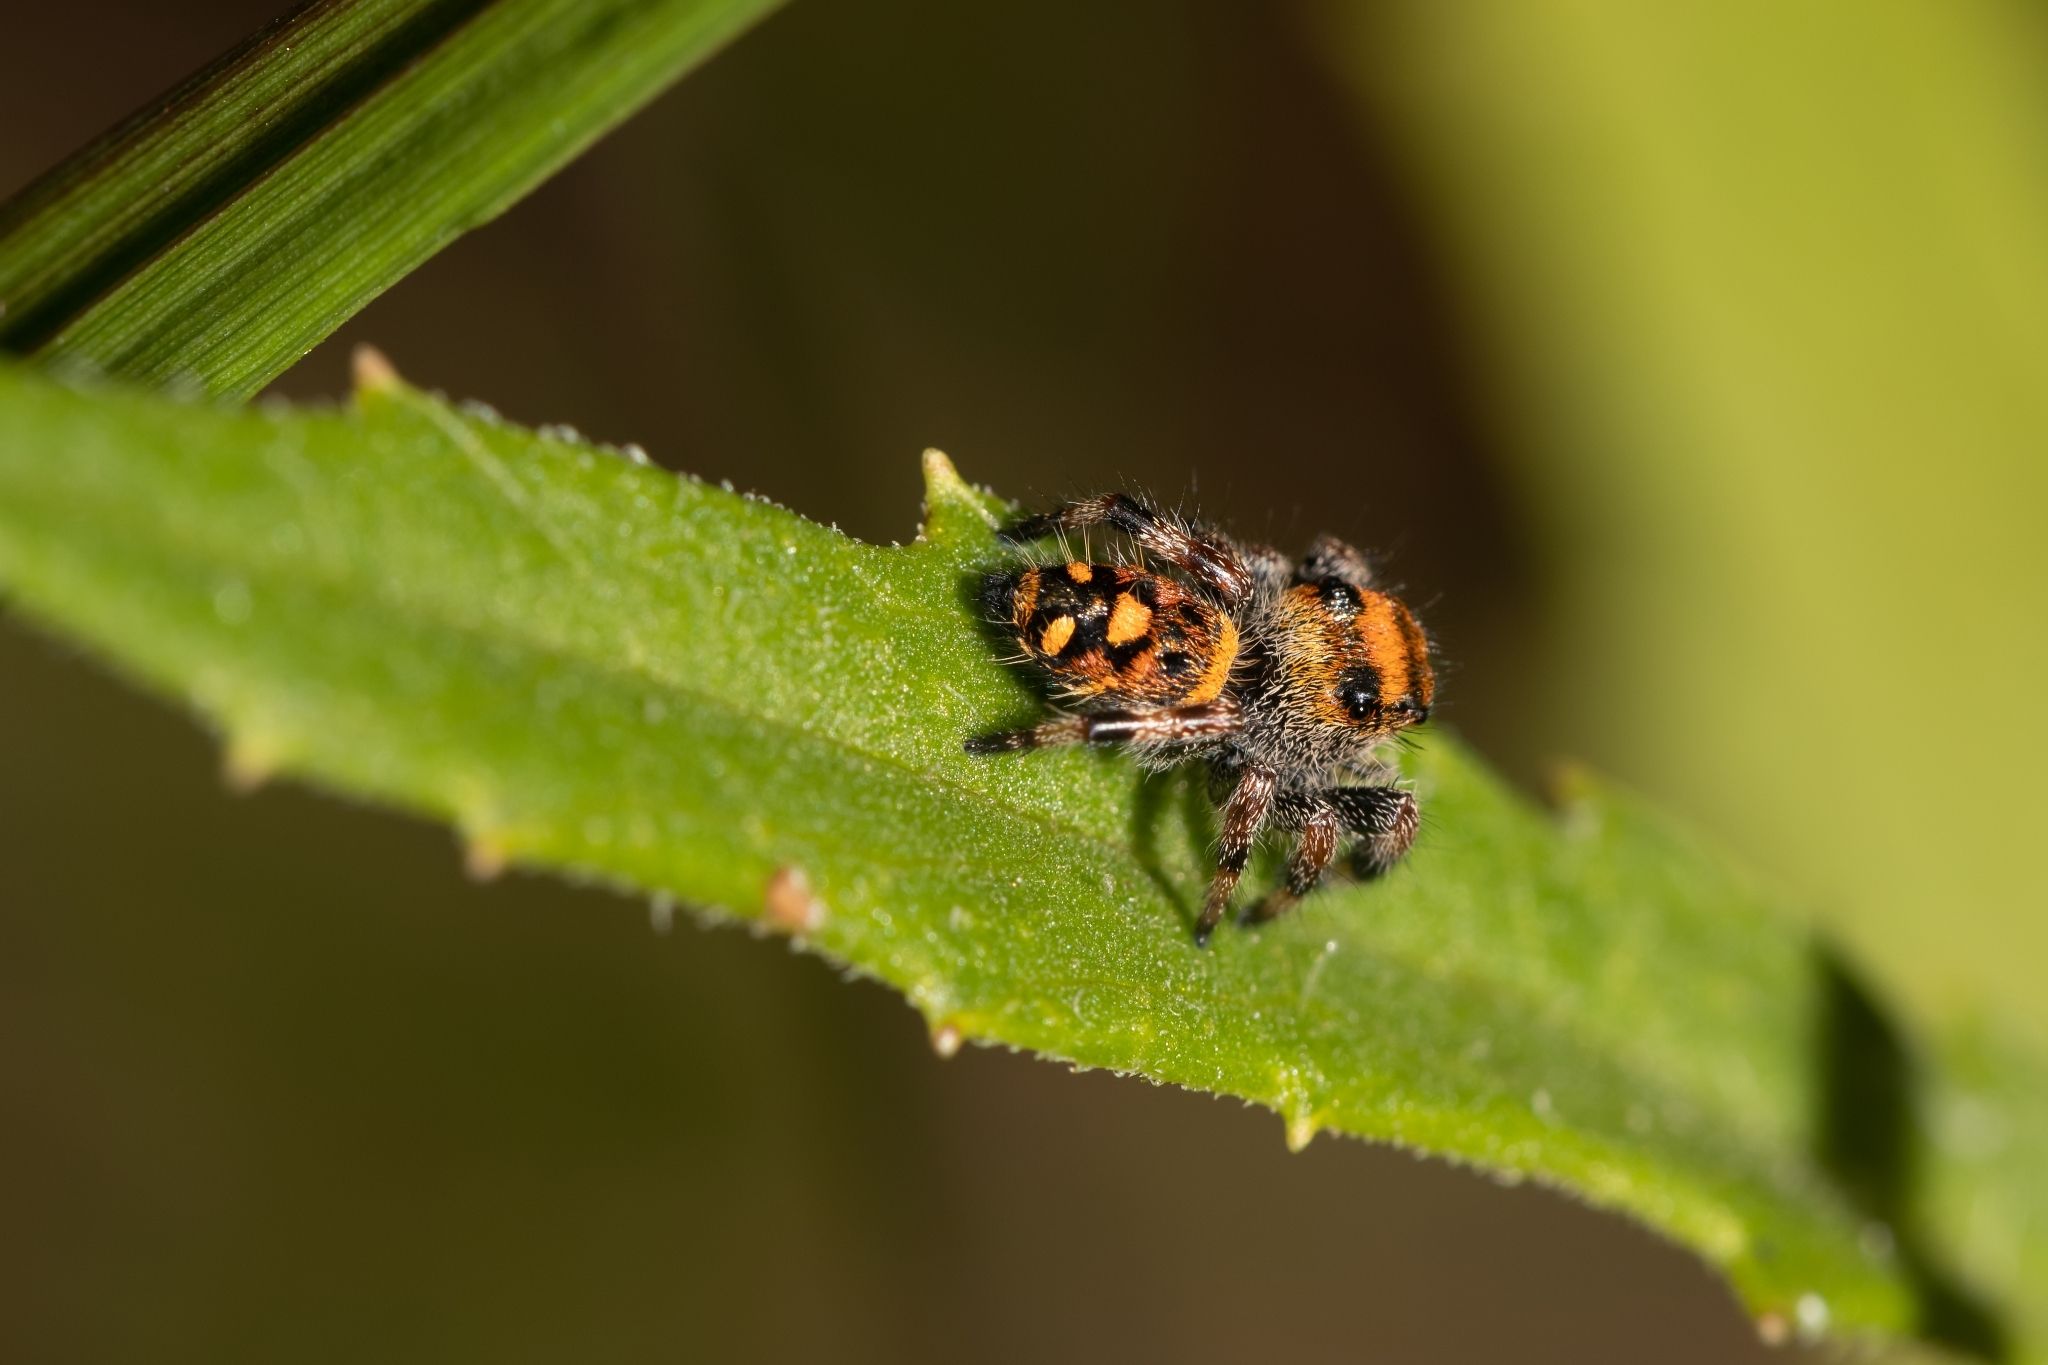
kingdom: Animalia
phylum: Arthropoda
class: Arachnida
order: Araneae
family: Salticidae
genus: Phidippus
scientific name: Phidippus regius
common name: Regal jumper
